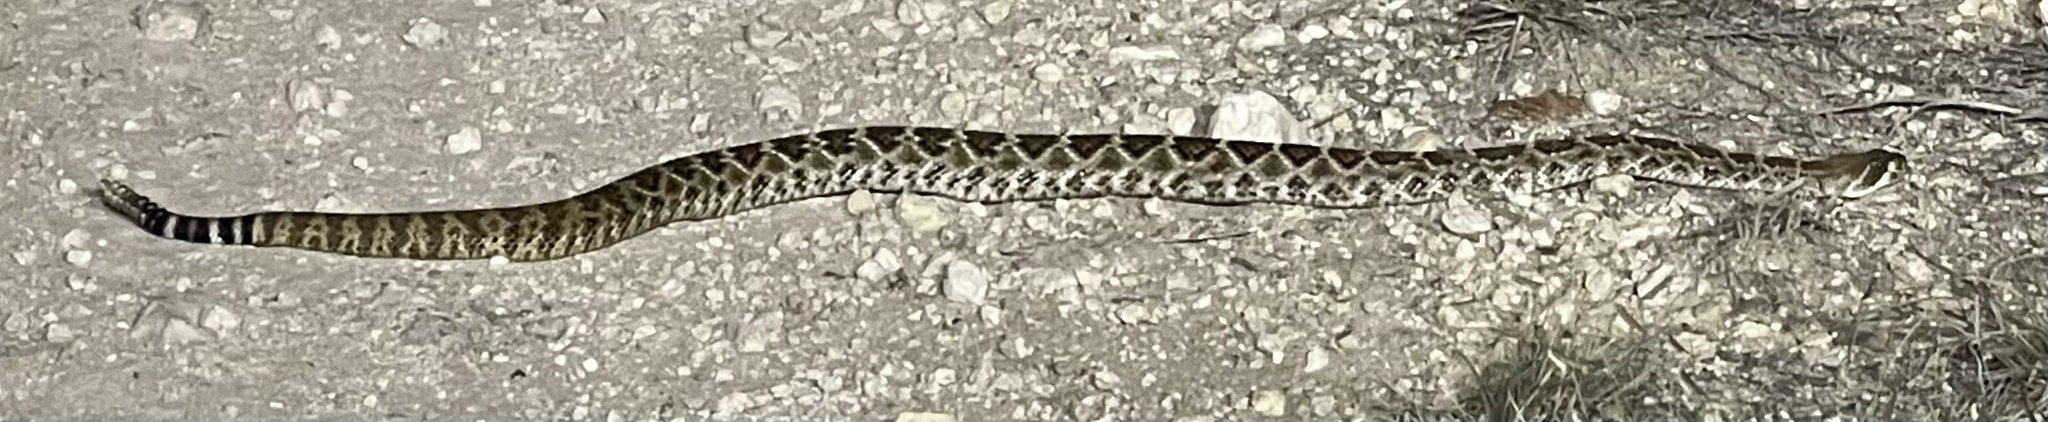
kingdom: Animalia
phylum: Chordata
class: Squamata
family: Viperidae
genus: Crotalus
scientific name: Crotalus atrox
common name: Western diamond-backed rattlesnake
